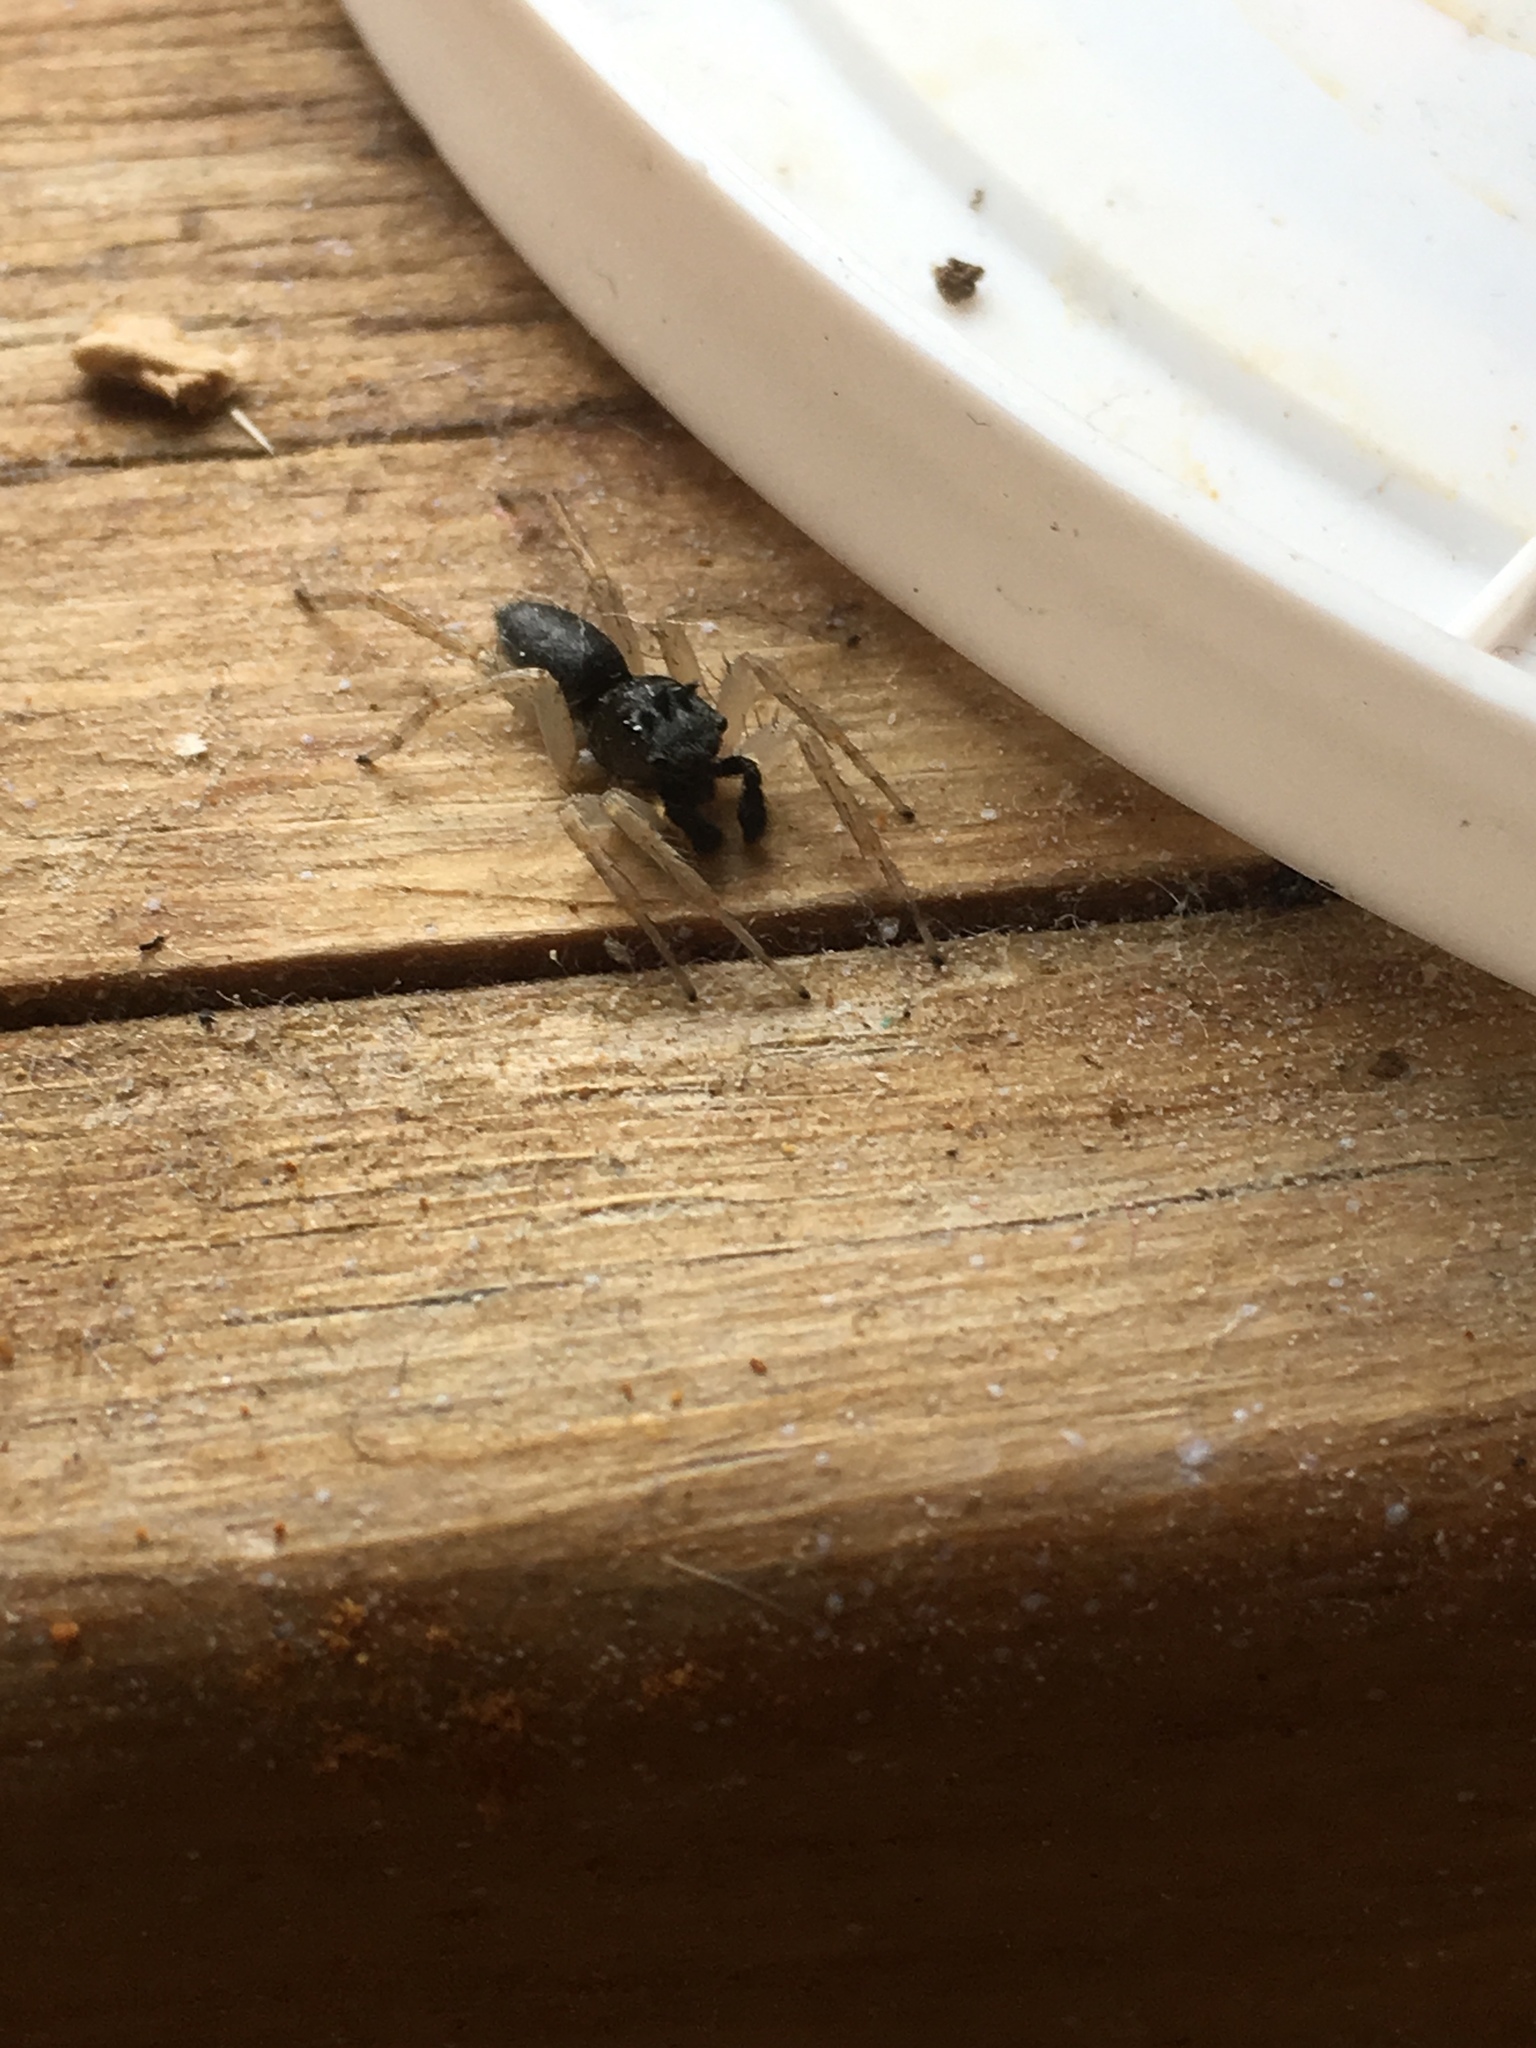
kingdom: Animalia
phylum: Arthropoda
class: Arachnida
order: Araneae
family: Salticidae
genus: Maevia
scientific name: Maevia inclemens
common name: Dimorphic jumper
